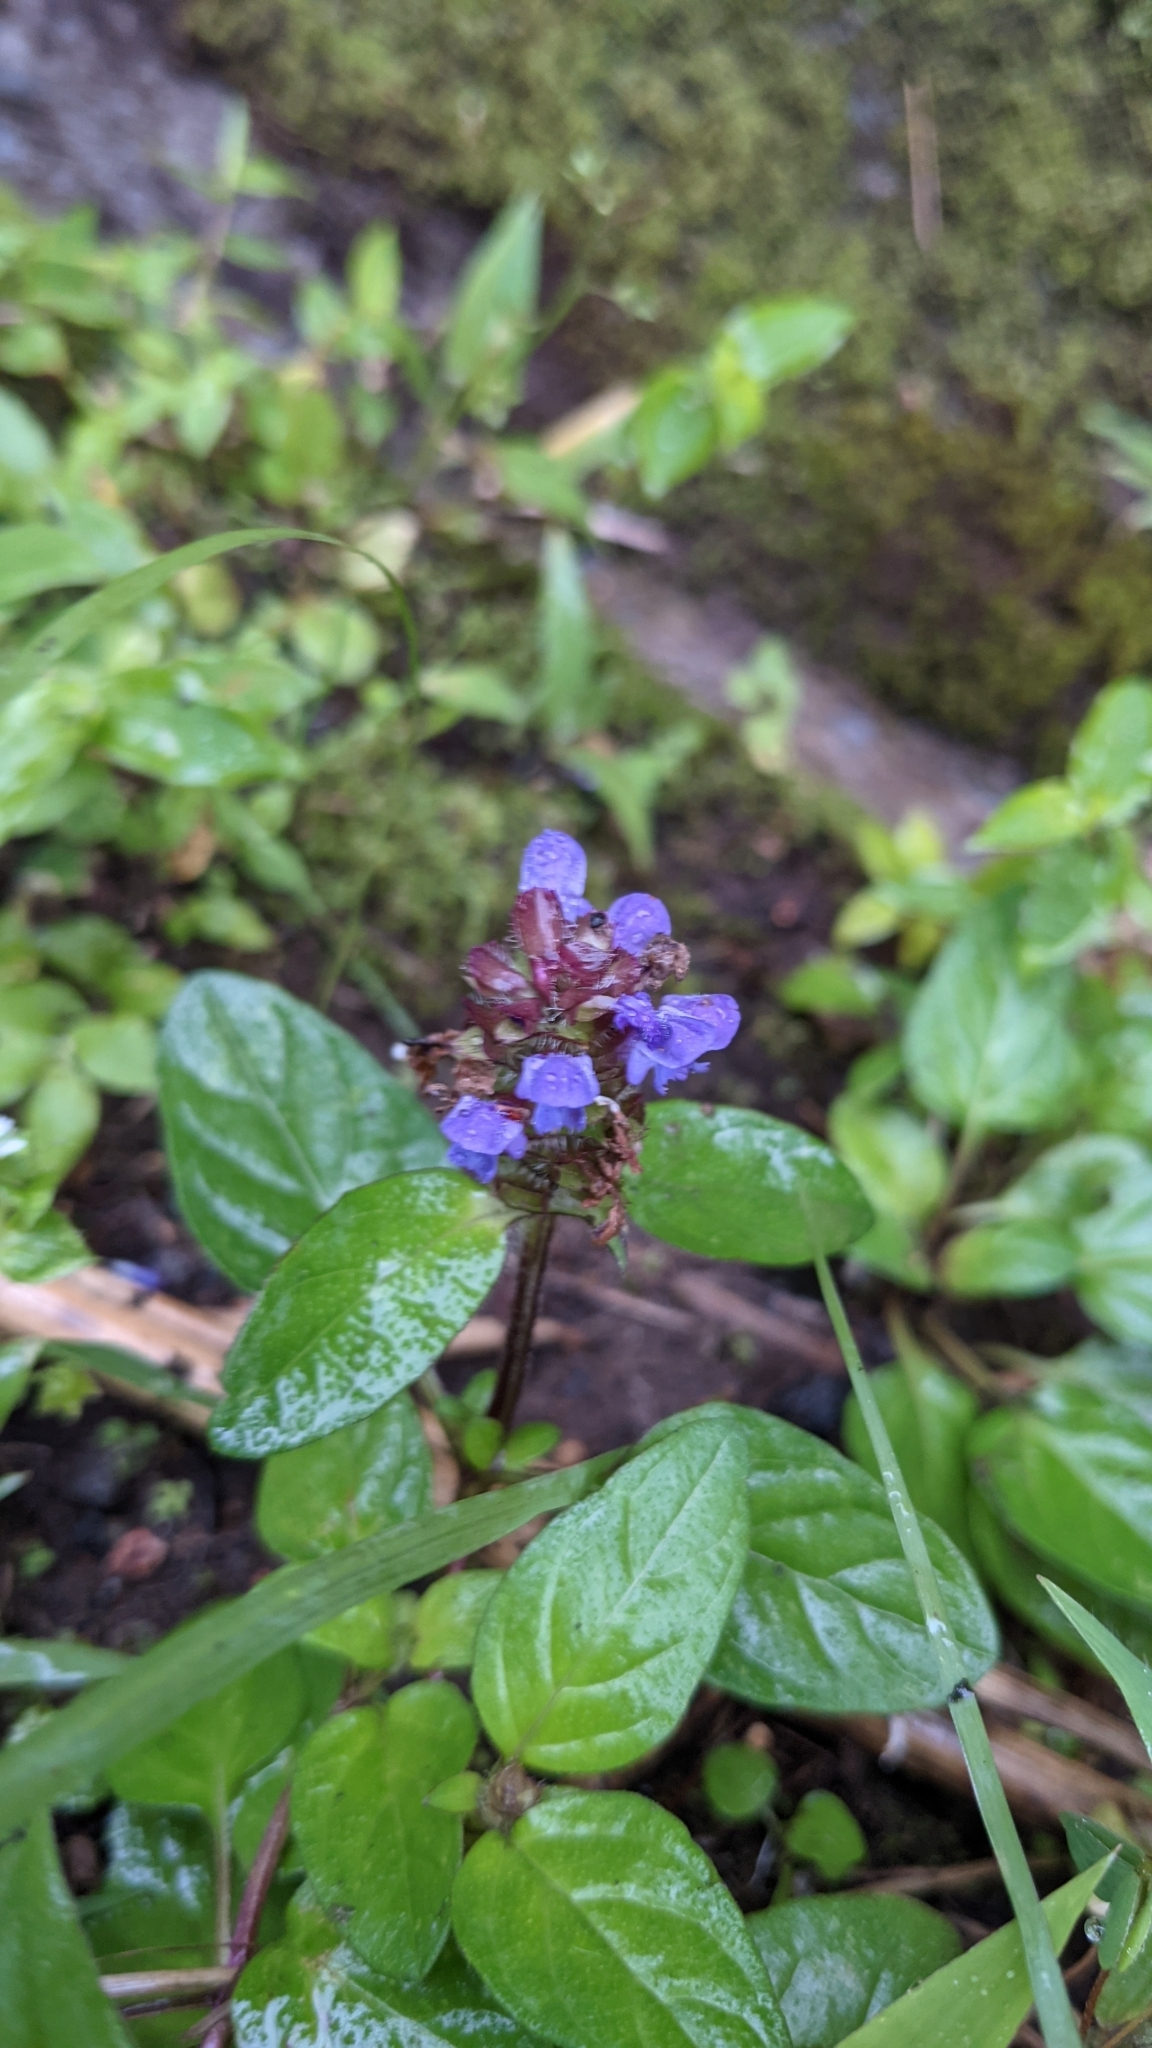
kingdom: Plantae
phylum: Tracheophyta
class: Magnoliopsida
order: Lamiales
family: Lamiaceae
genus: Prunella
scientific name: Prunella vulgaris
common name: Heal-all
